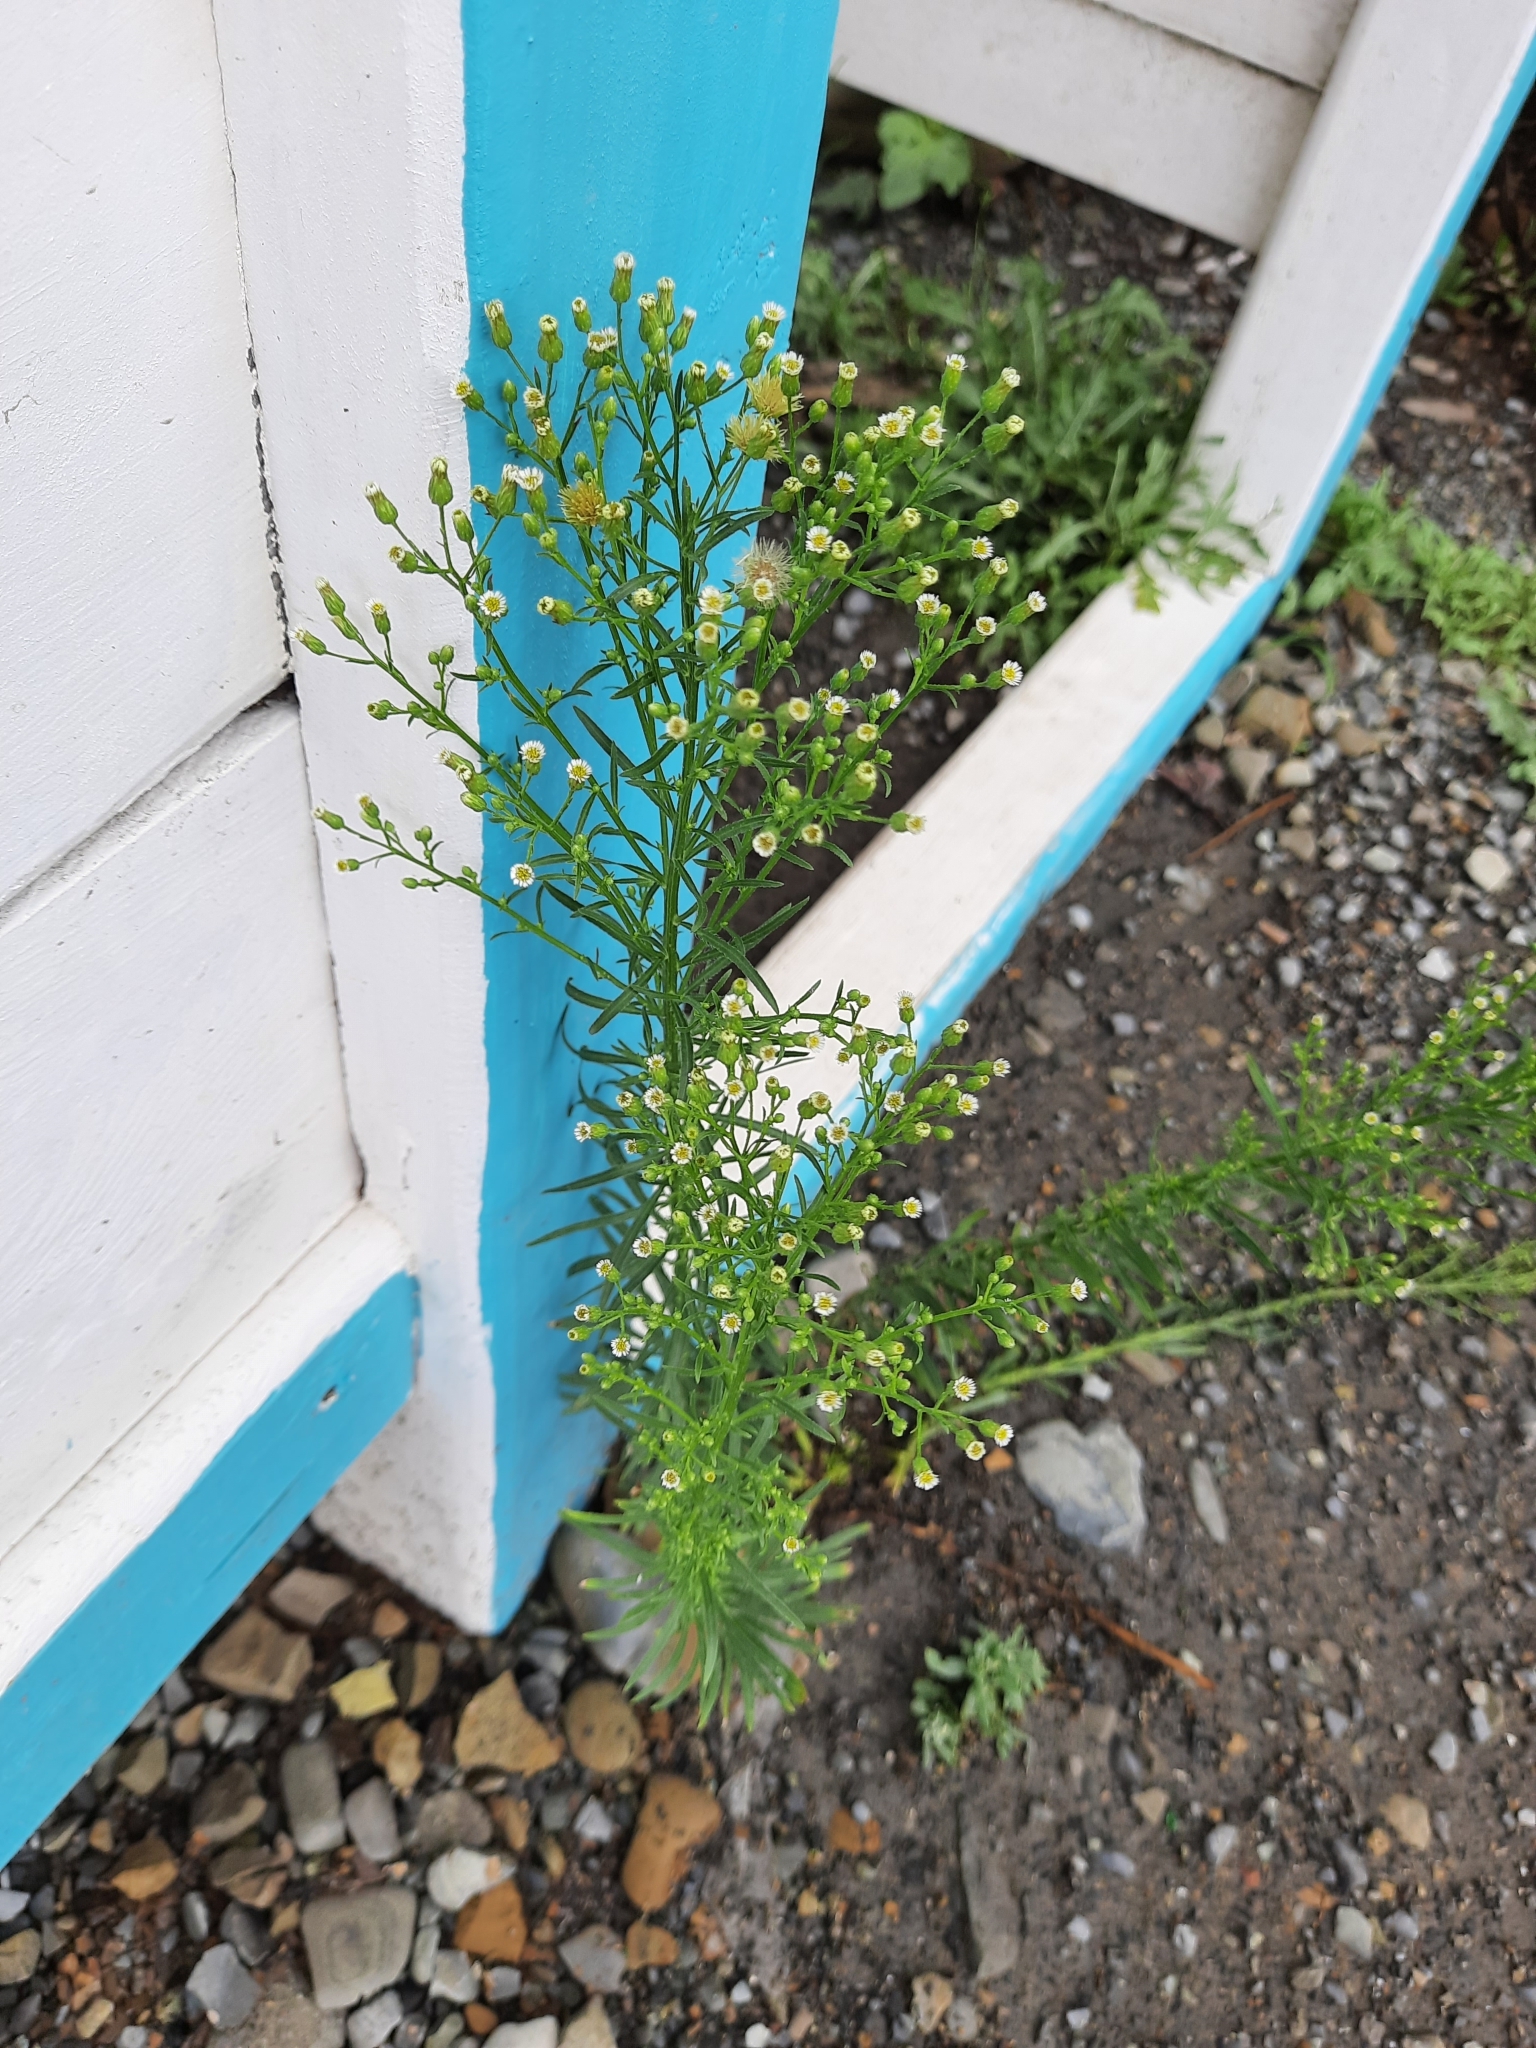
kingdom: Plantae
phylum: Tracheophyta
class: Magnoliopsida
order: Asterales
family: Asteraceae
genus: Erigeron
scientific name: Erigeron canadensis
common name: Canadian fleabane
